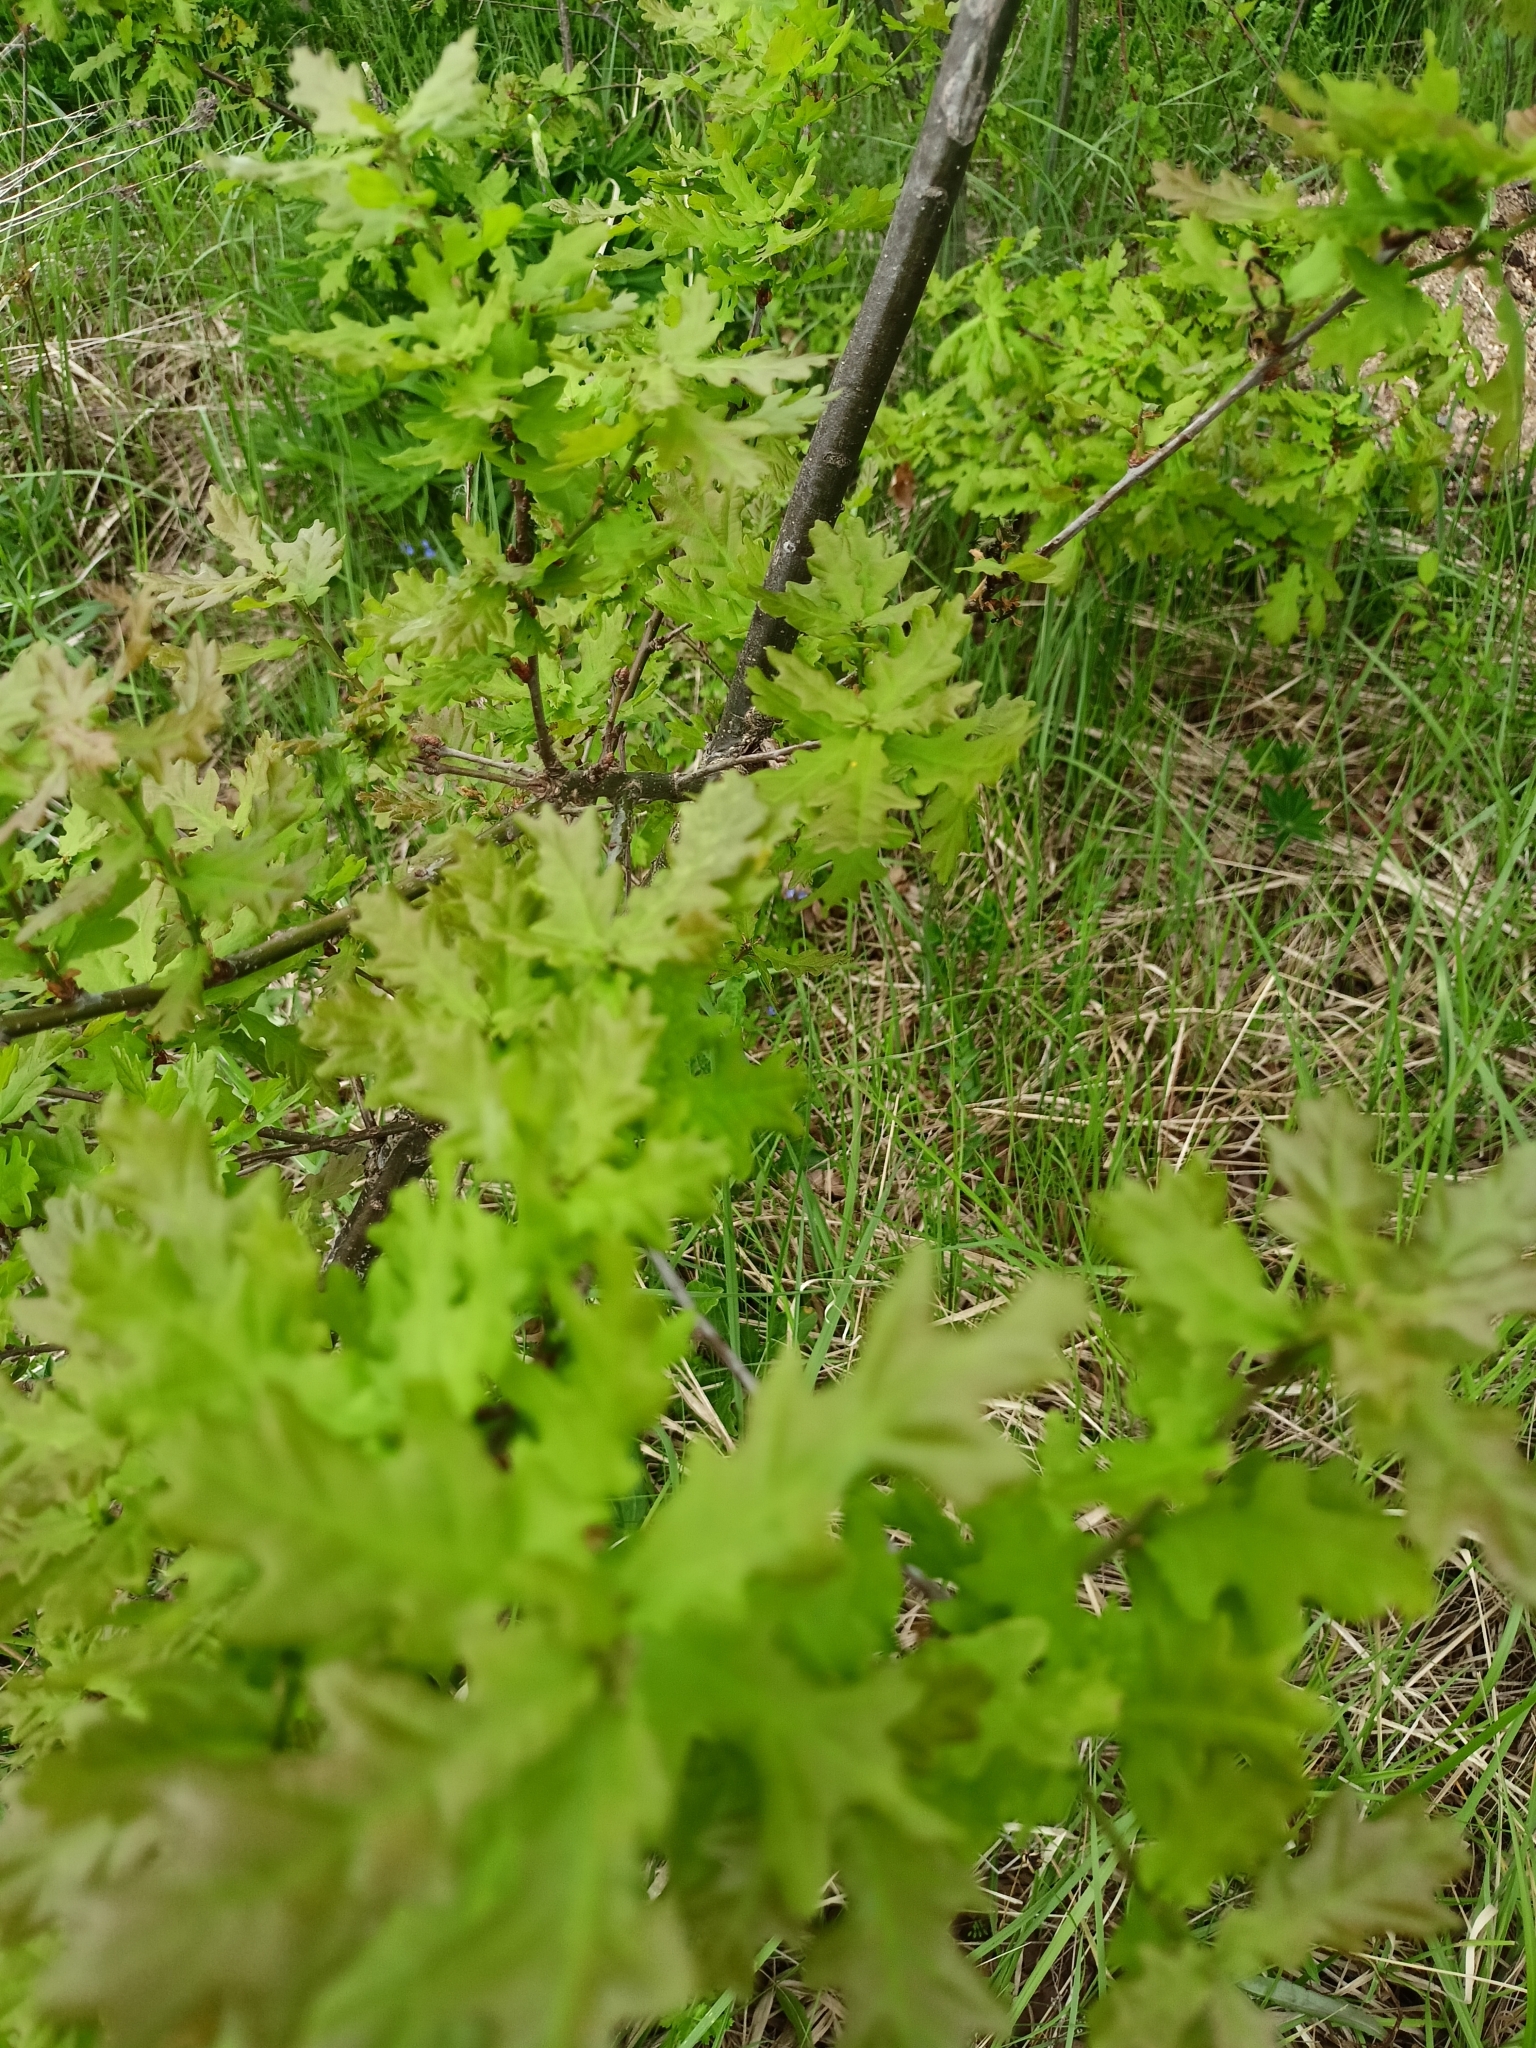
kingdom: Plantae
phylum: Tracheophyta
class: Magnoliopsida
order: Fagales
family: Fagaceae
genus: Quercus
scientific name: Quercus robur
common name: Pedunculate oak
